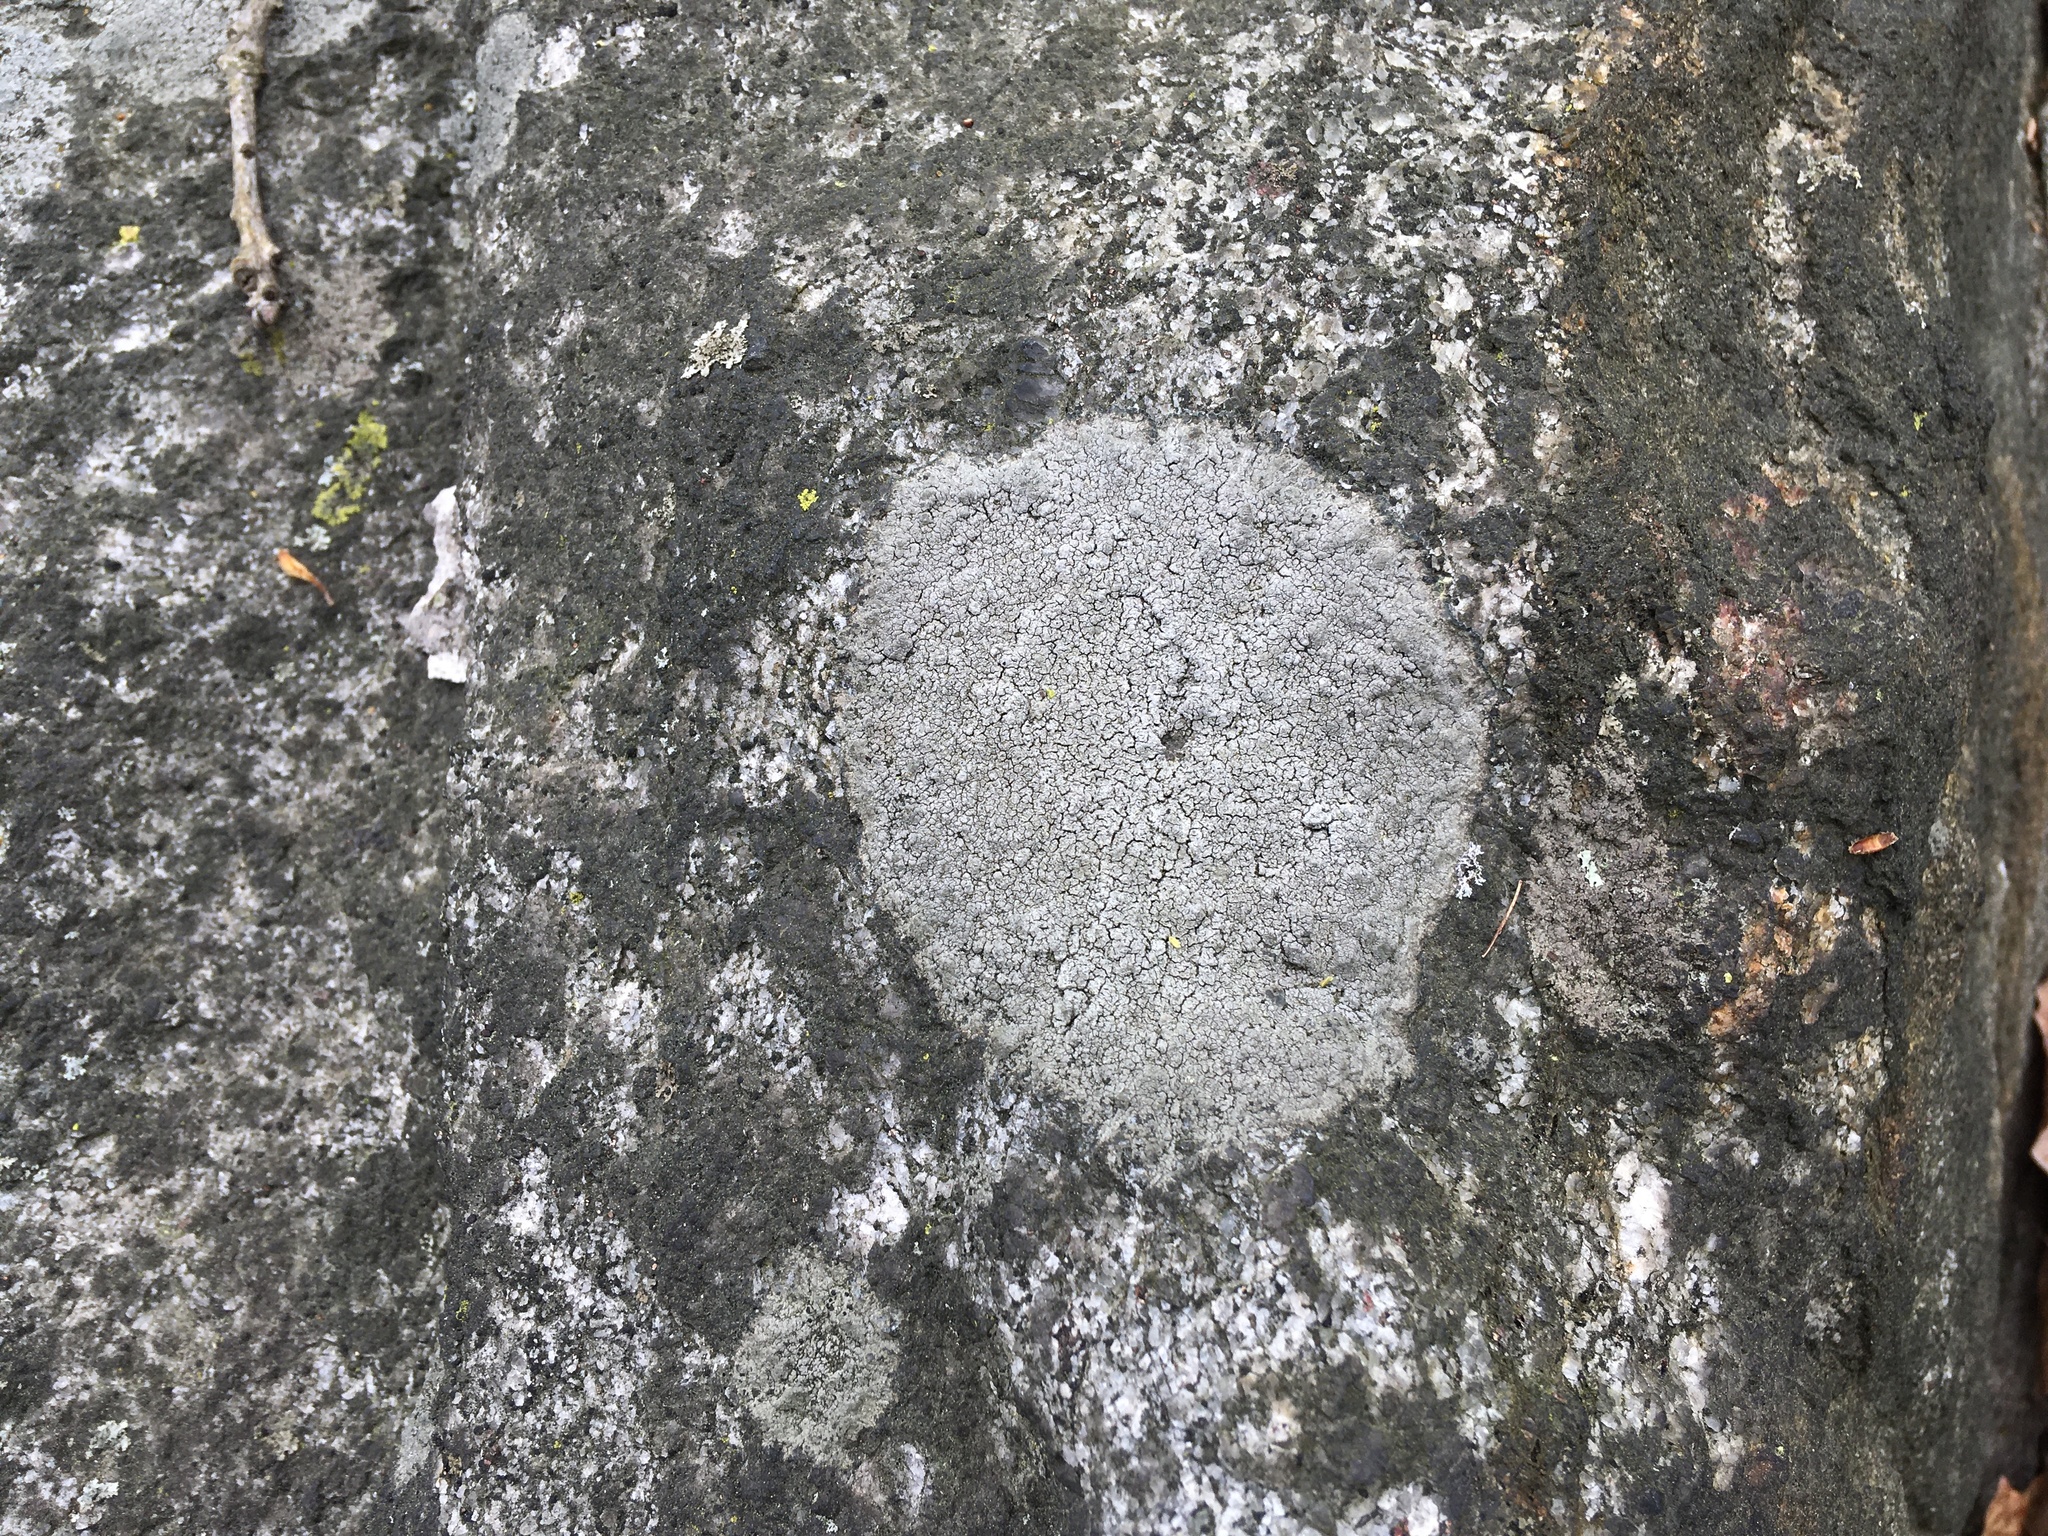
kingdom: Fungi
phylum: Ascomycota
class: Lecanoromycetes
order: Lecideales
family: Lecideaceae
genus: Porpidia
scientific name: Porpidia albocaerulescens
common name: Smokey-eyed boulder lichen
